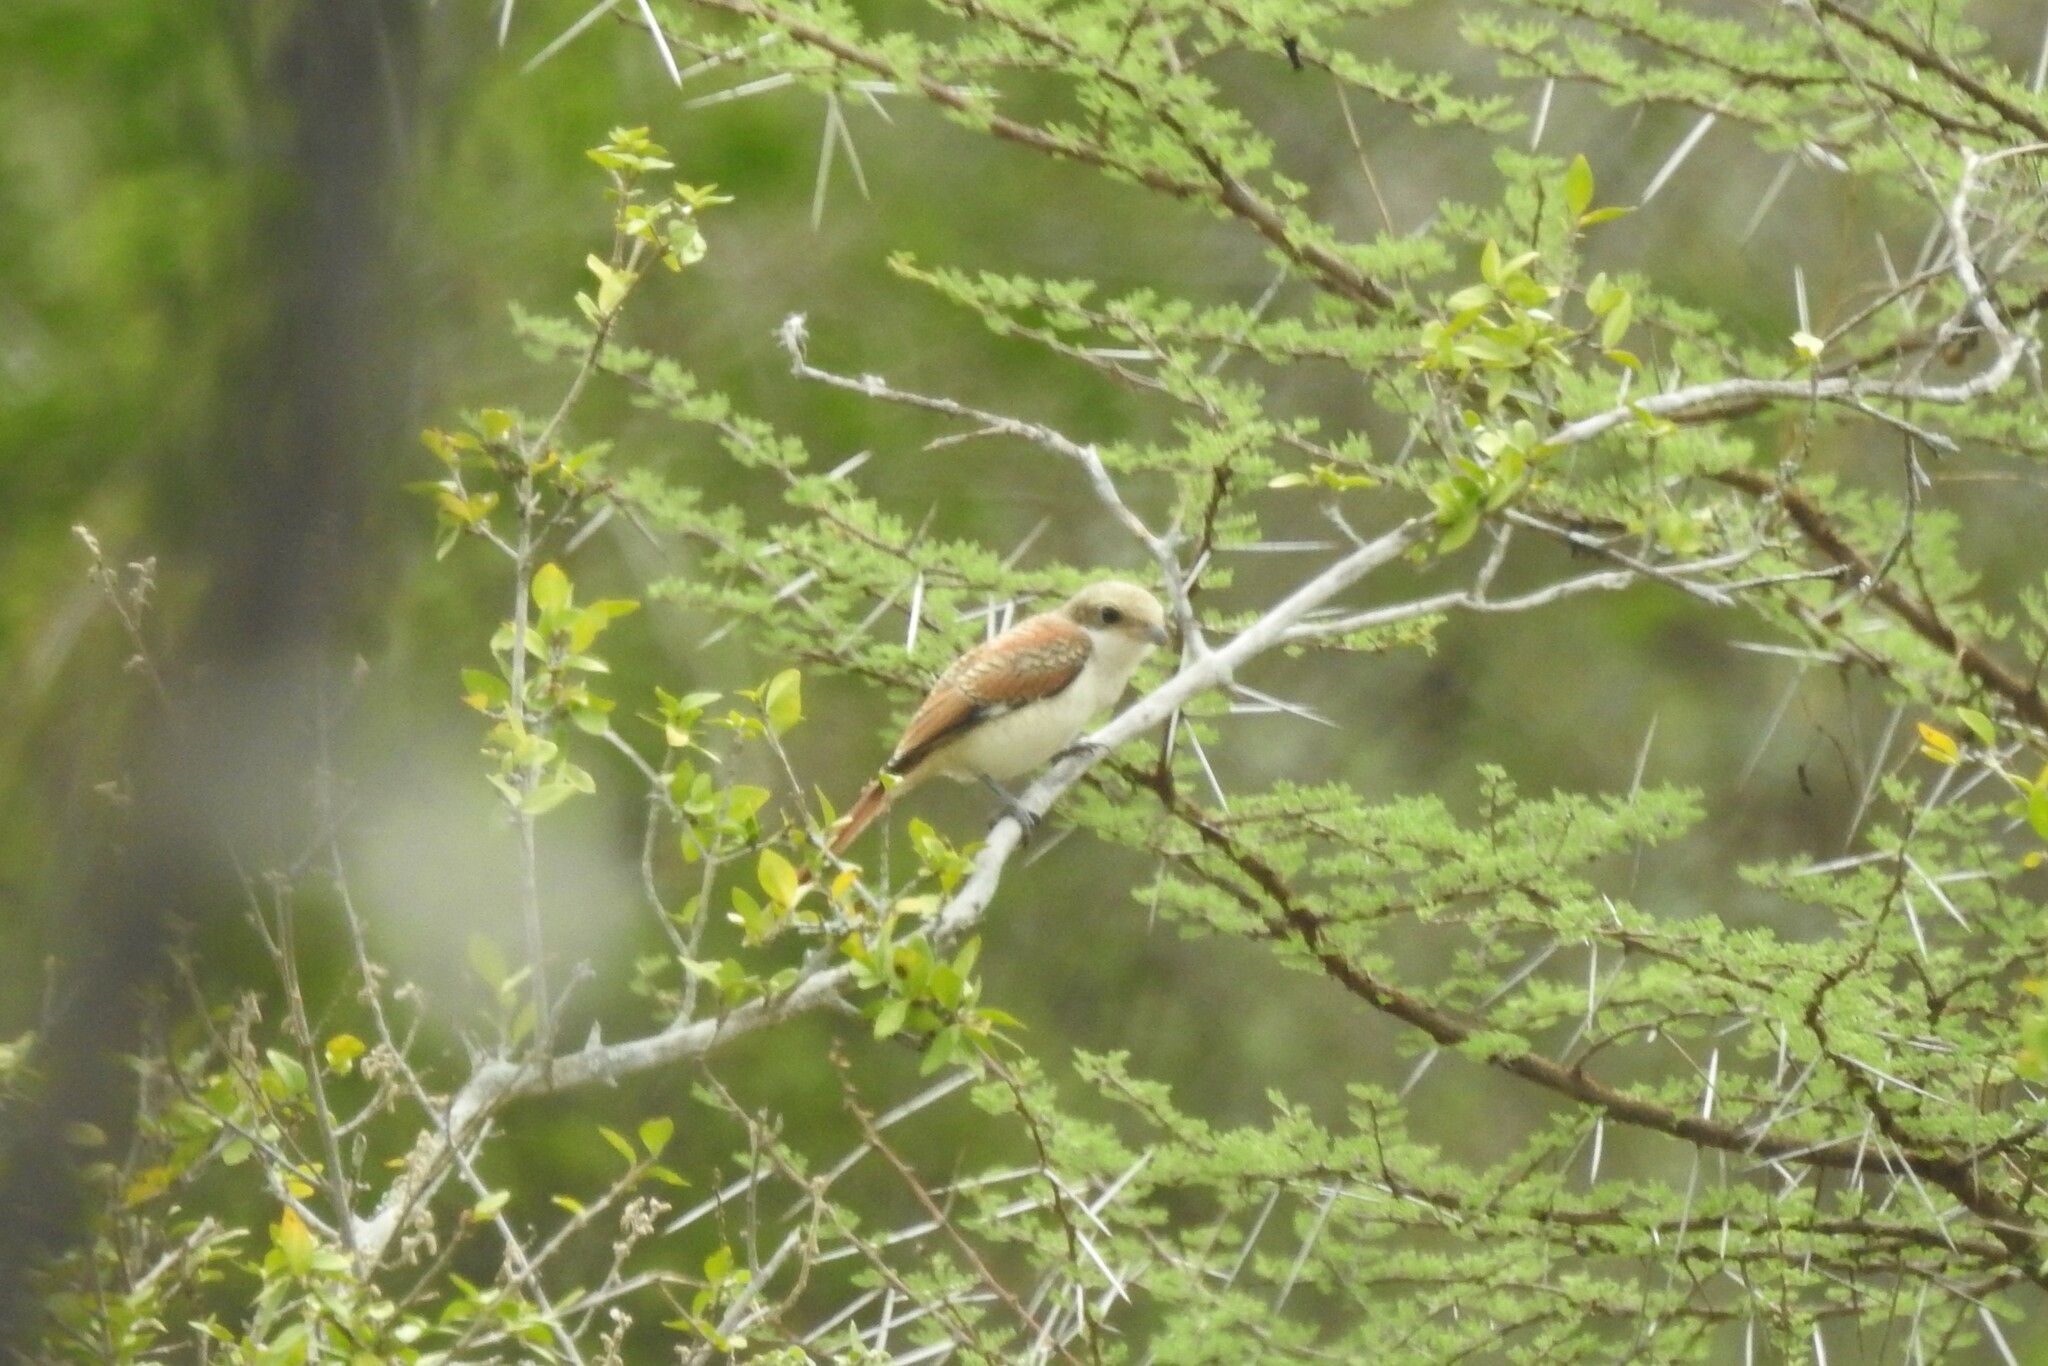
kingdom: Animalia
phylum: Chordata
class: Aves
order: Passeriformes
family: Laniidae
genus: Lanius
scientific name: Lanius vittatus
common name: Bay-backed shrike
